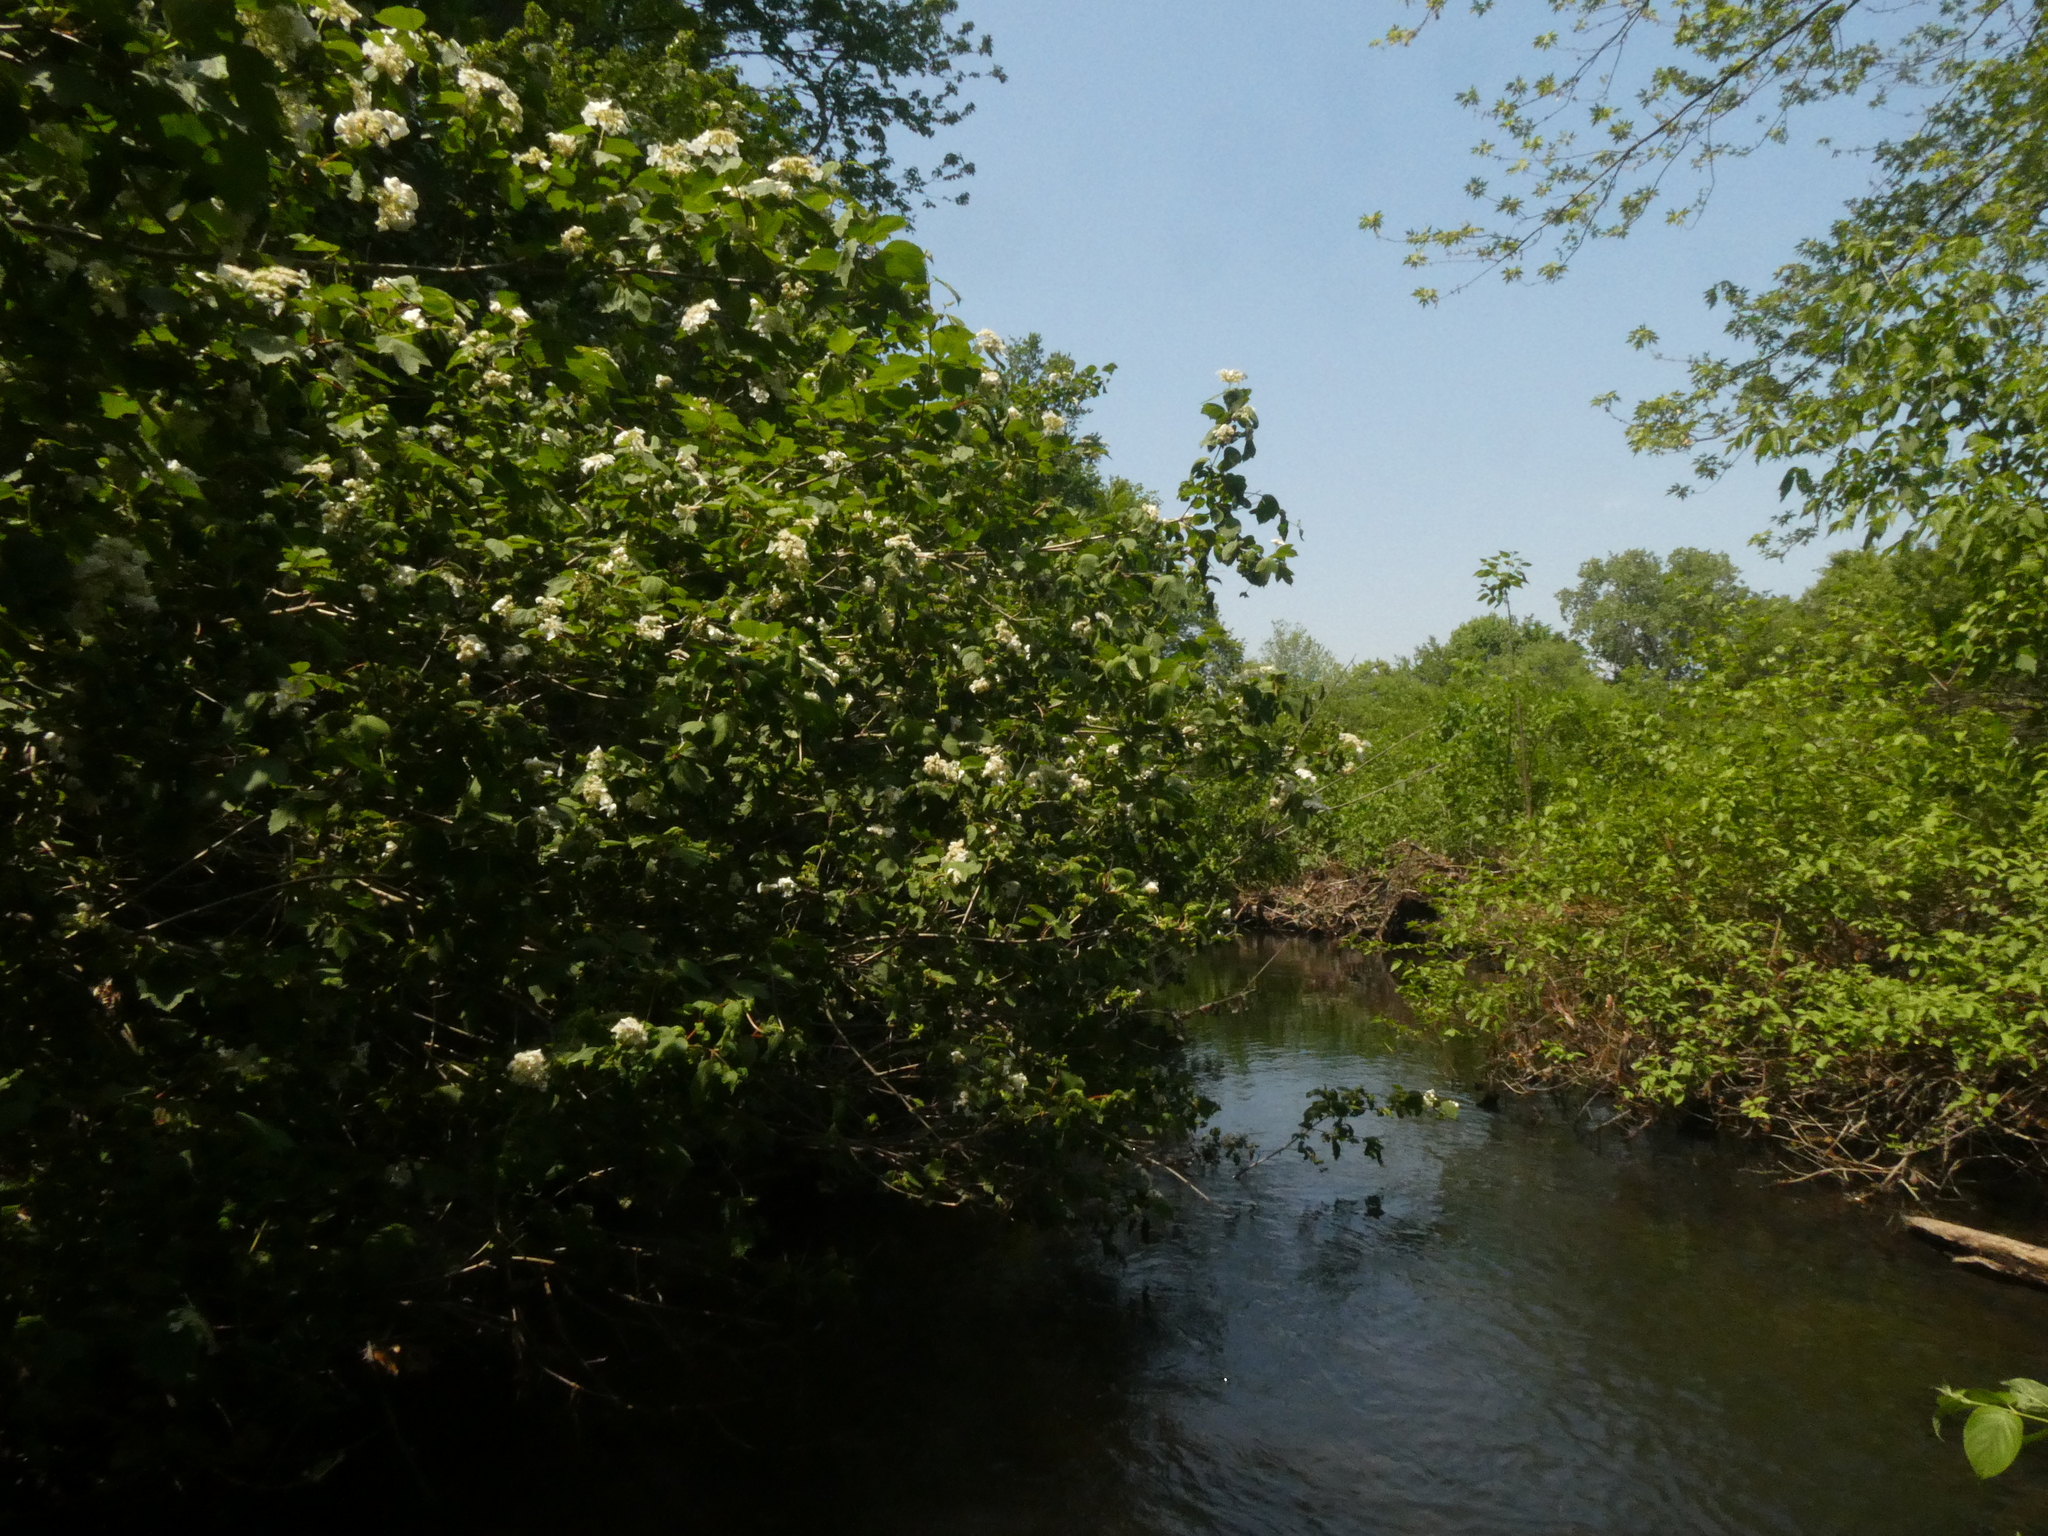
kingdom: Plantae
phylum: Tracheophyta
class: Magnoliopsida
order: Dipsacales
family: Viburnaceae
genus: Viburnum
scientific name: Viburnum opulus
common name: Guelder-rose
